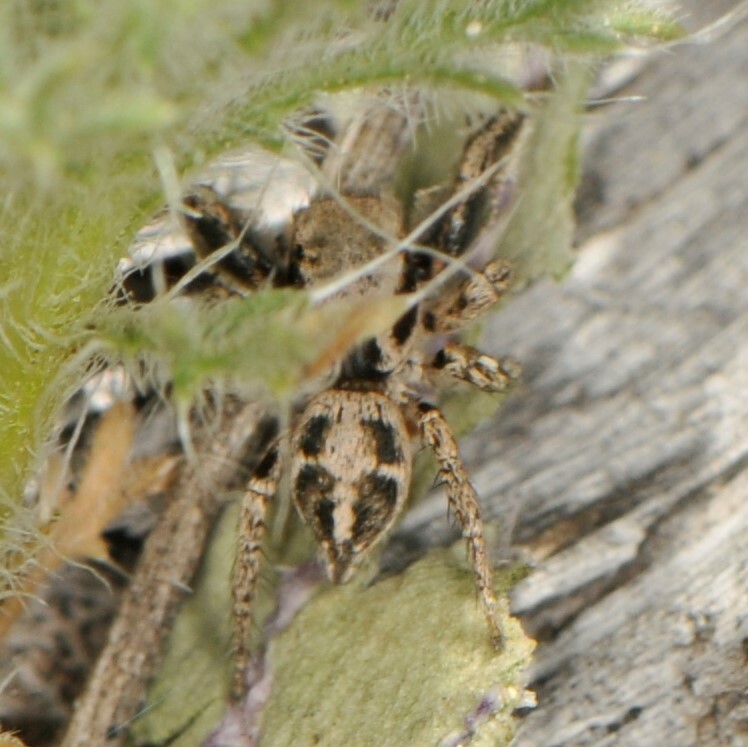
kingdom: Animalia
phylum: Arthropoda
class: Arachnida
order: Araneae
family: Salticidae
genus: Habronattus
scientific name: Habronattus klauseri
